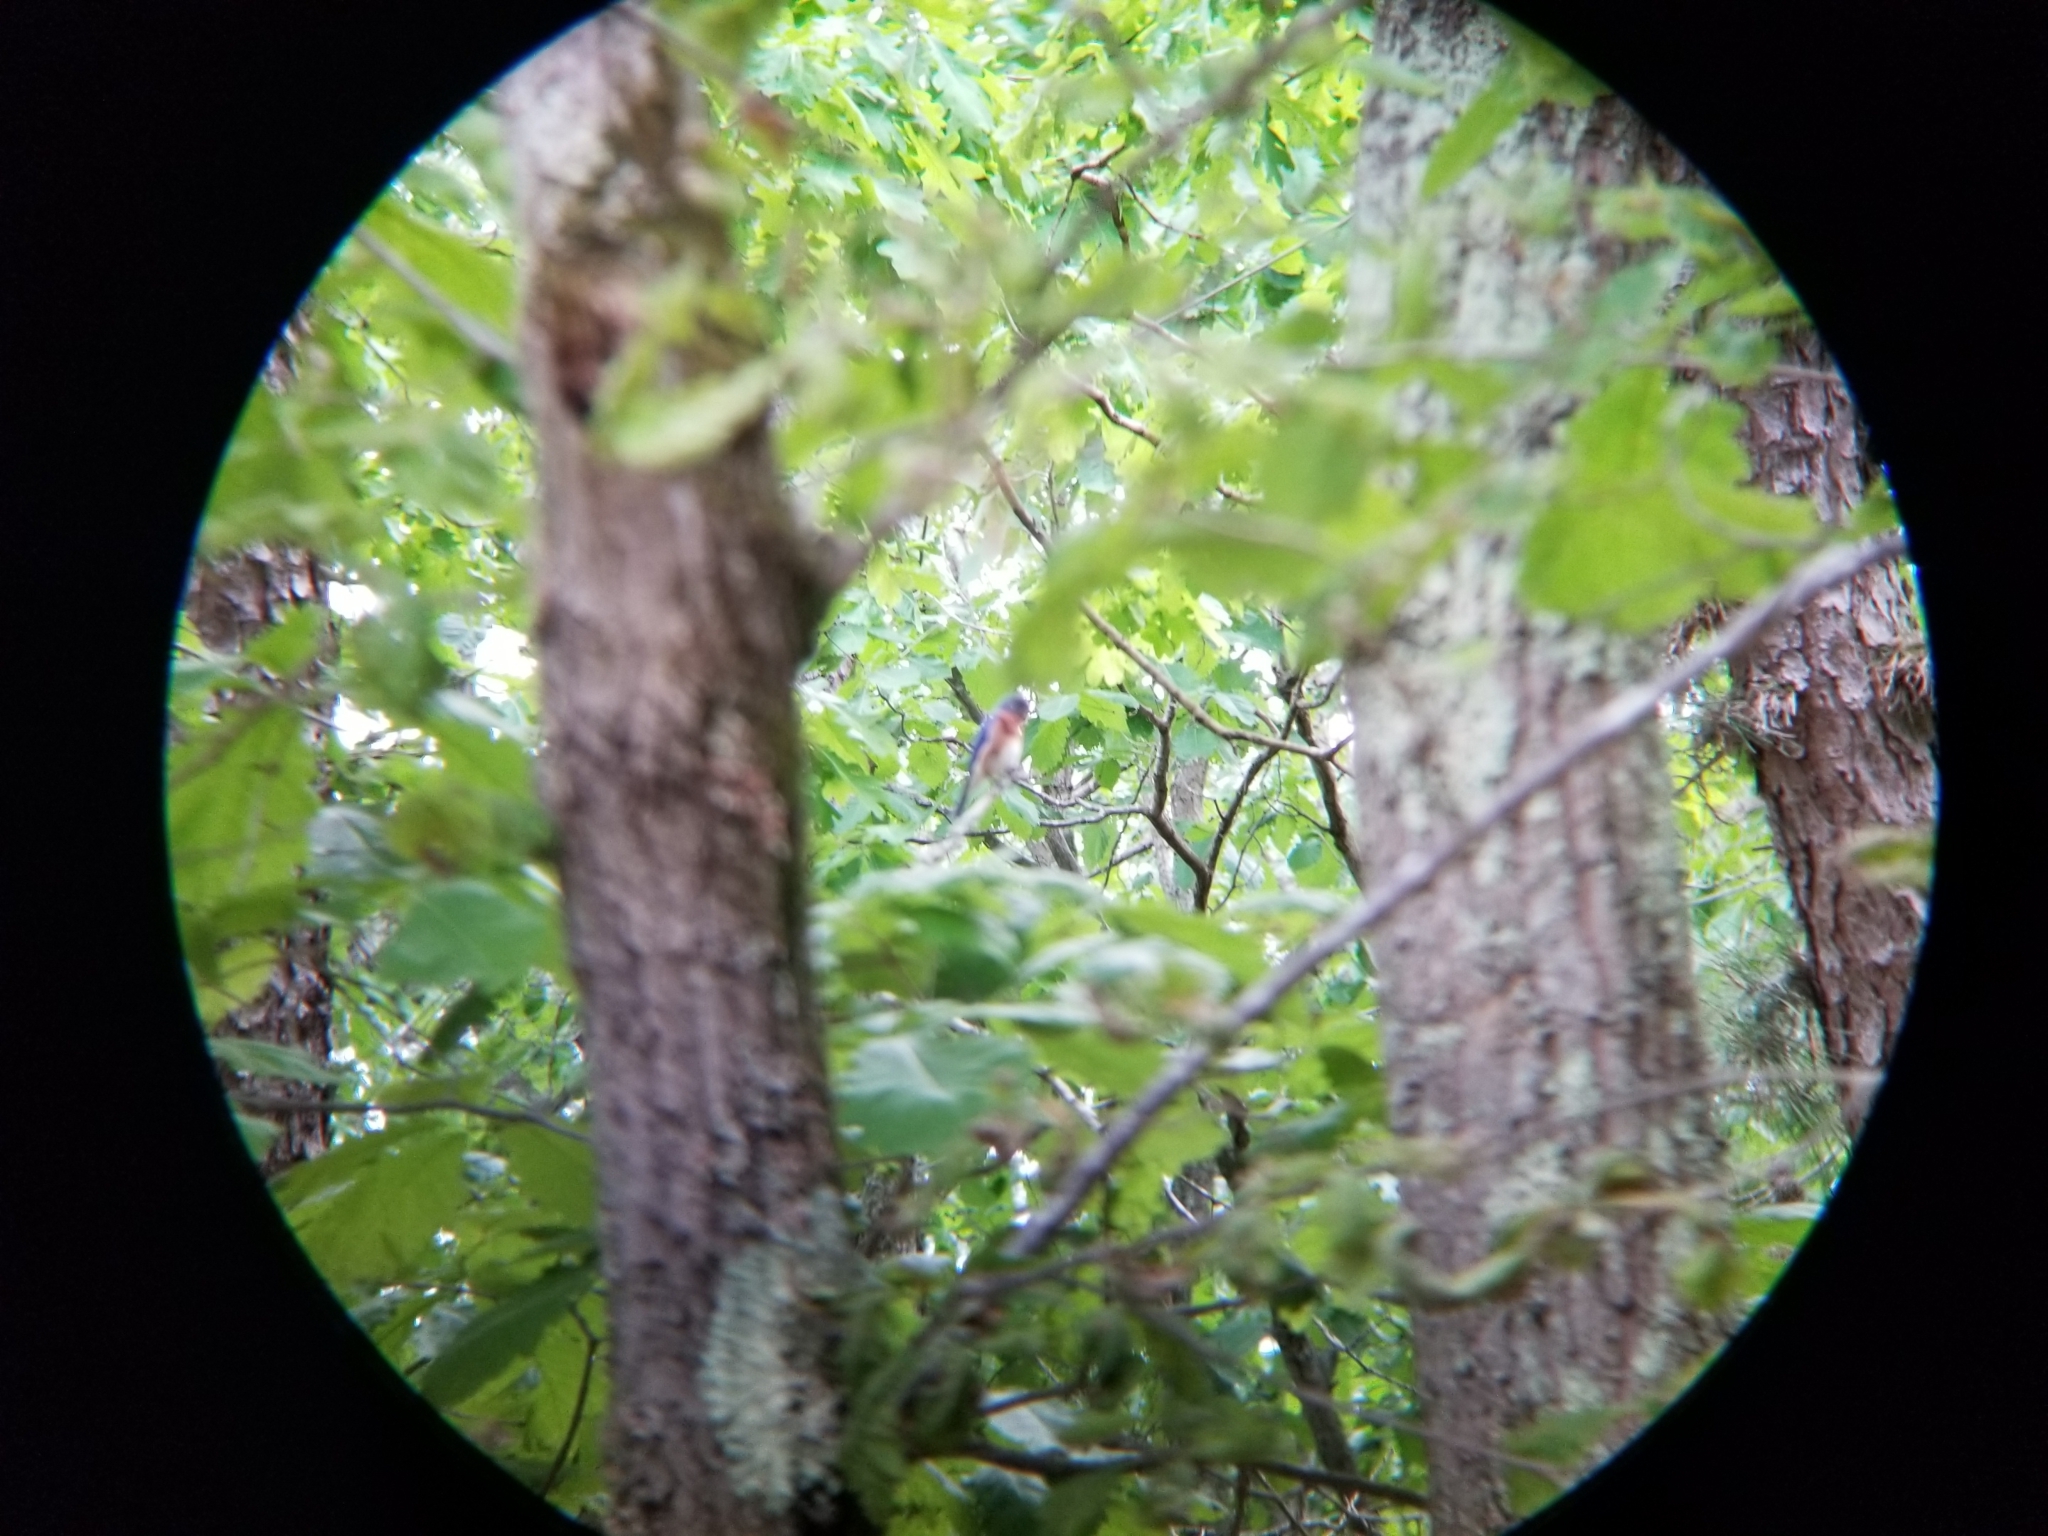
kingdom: Animalia
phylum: Chordata
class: Aves
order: Passeriformes
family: Turdidae
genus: Sialia
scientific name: Sialia sialis
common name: Eastern bluebird
